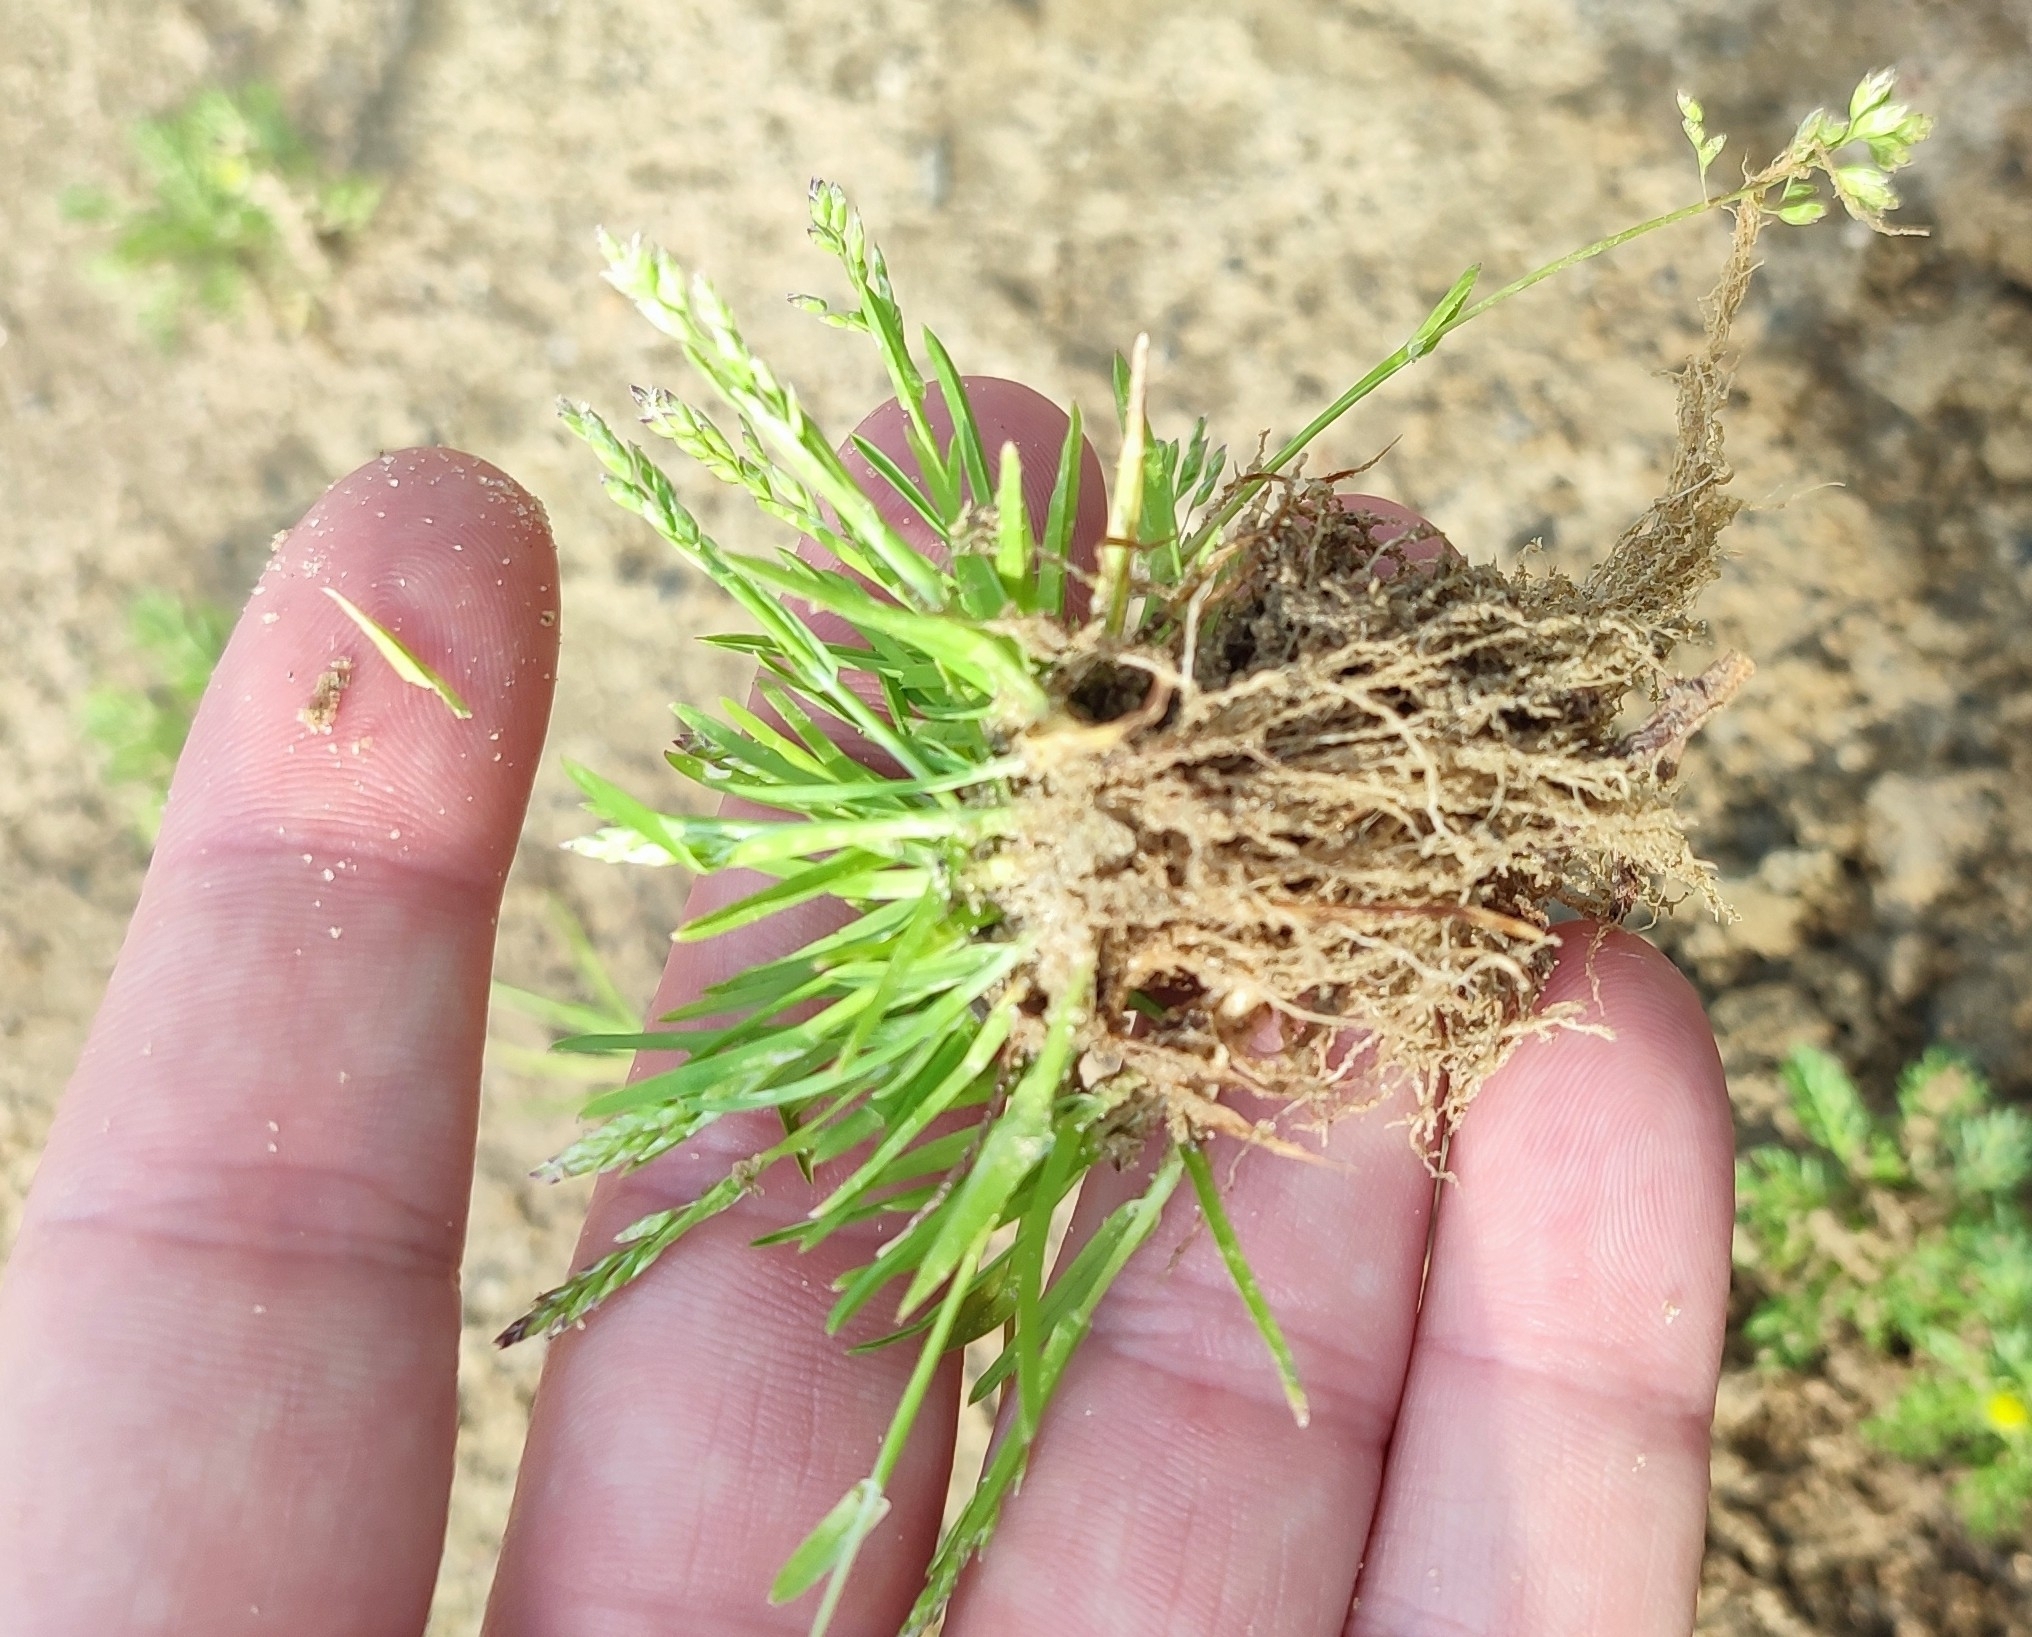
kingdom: Plantae
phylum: Tracheophyta
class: Liliopsida
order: Poales
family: Poaceae
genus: Poa
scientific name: Poa annua
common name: Annual bluegrass
